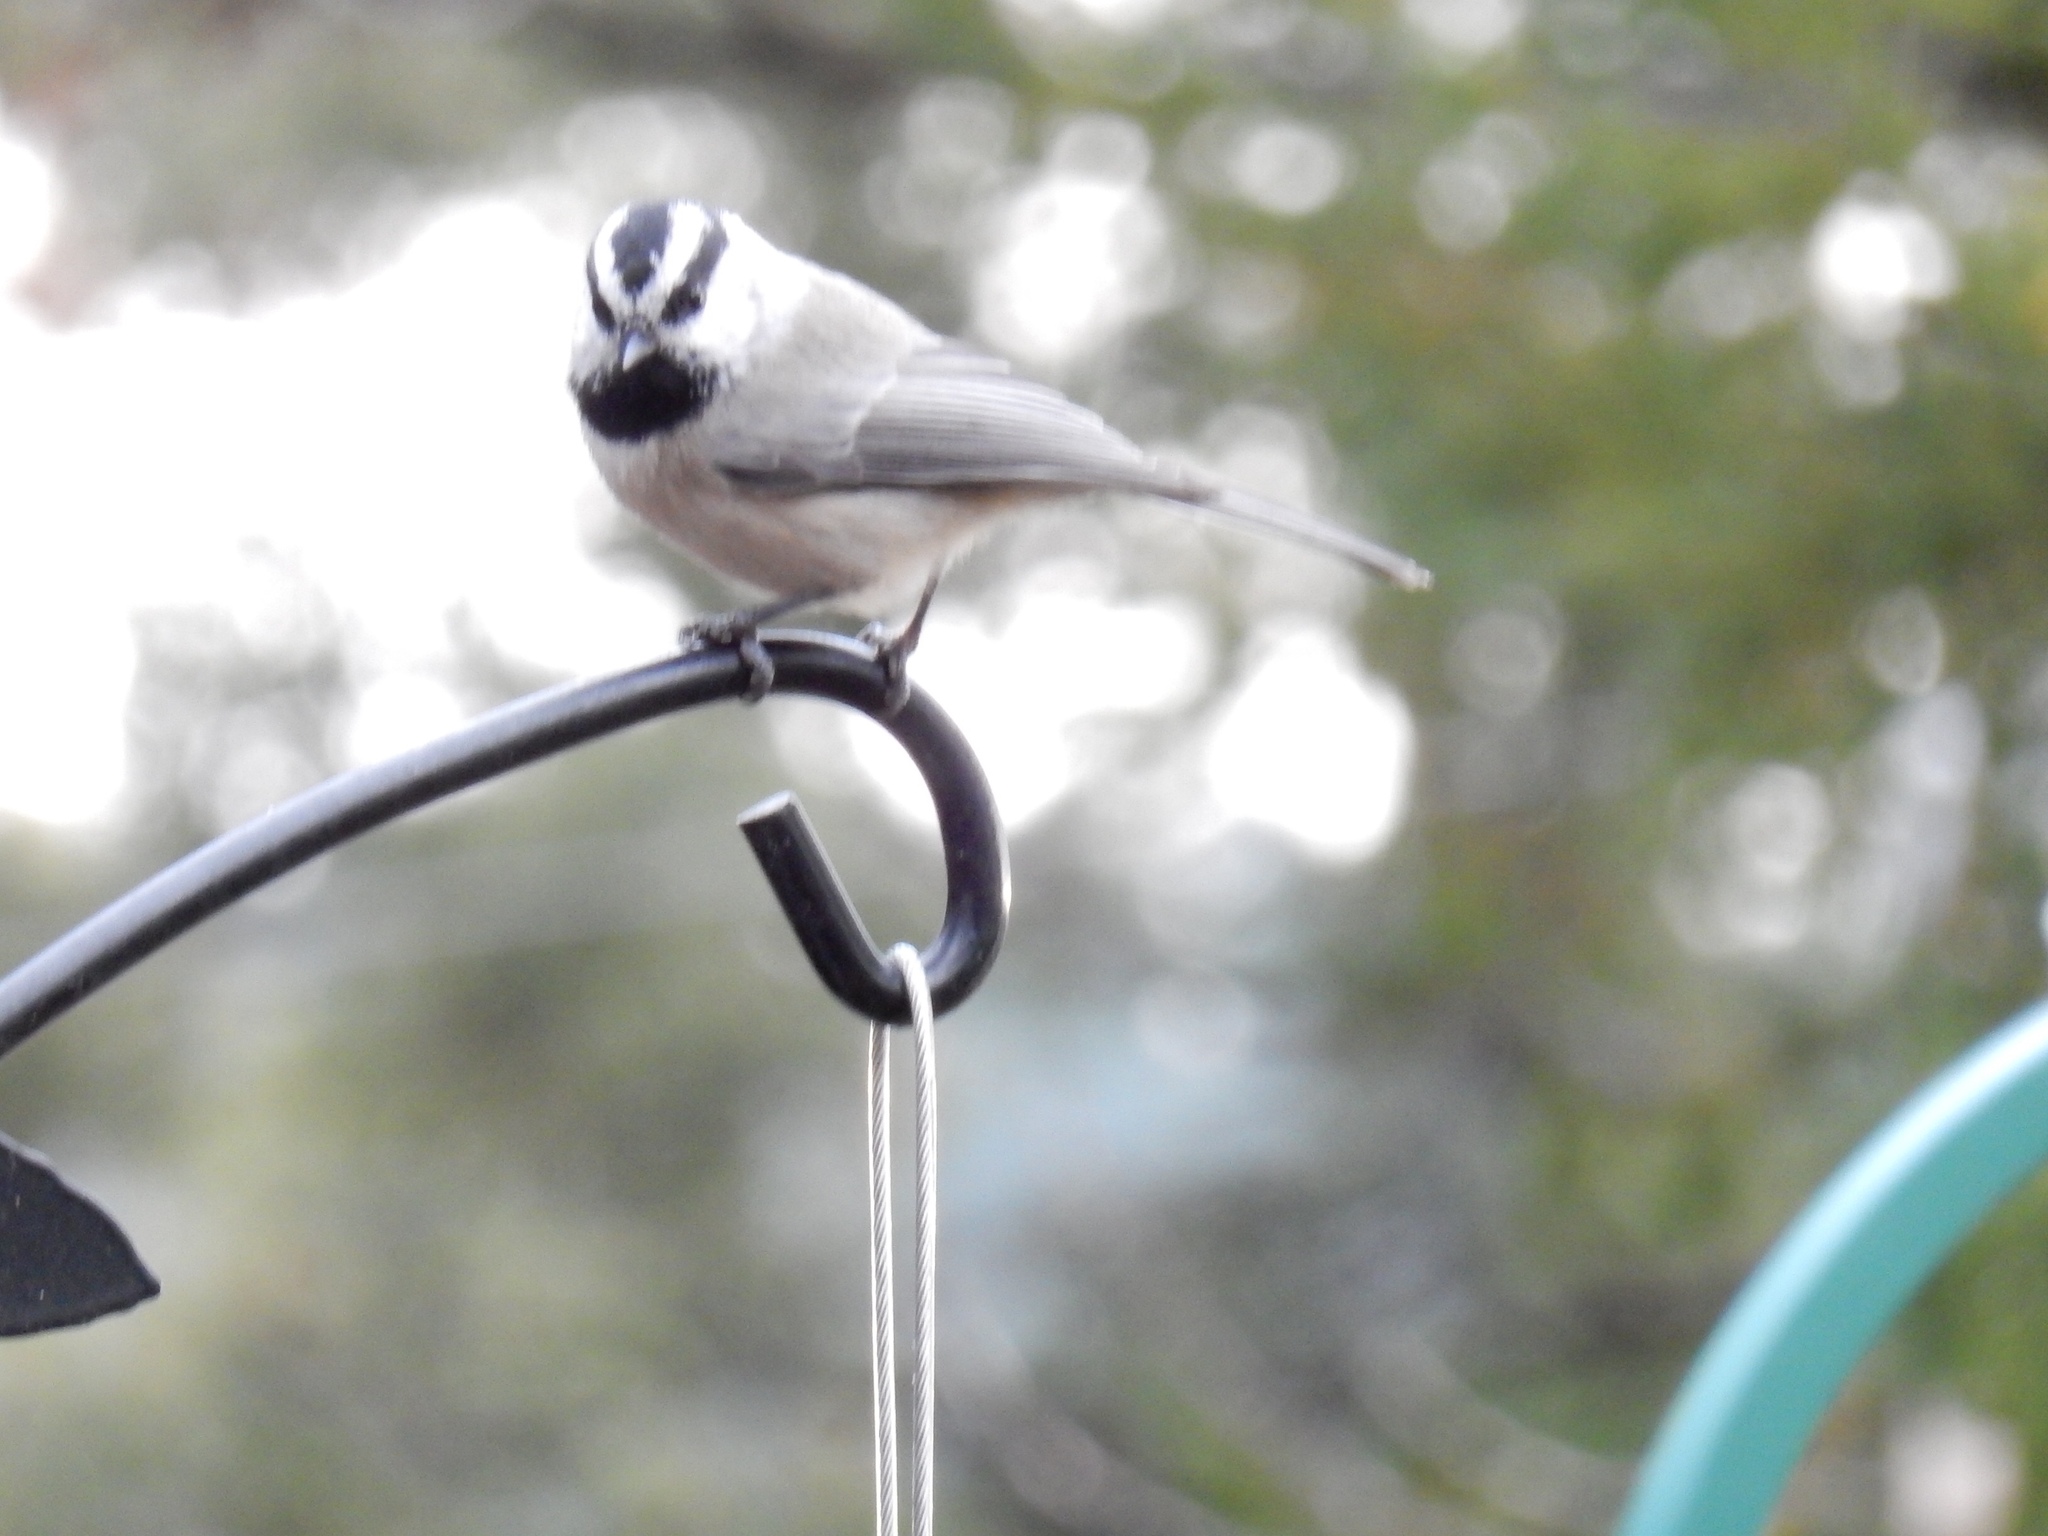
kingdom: Animalia
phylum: Chordata
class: Aves
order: Passeriformes
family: Paridae
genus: Poecile
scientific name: Poecile gambeli
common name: Mountain chickadee
